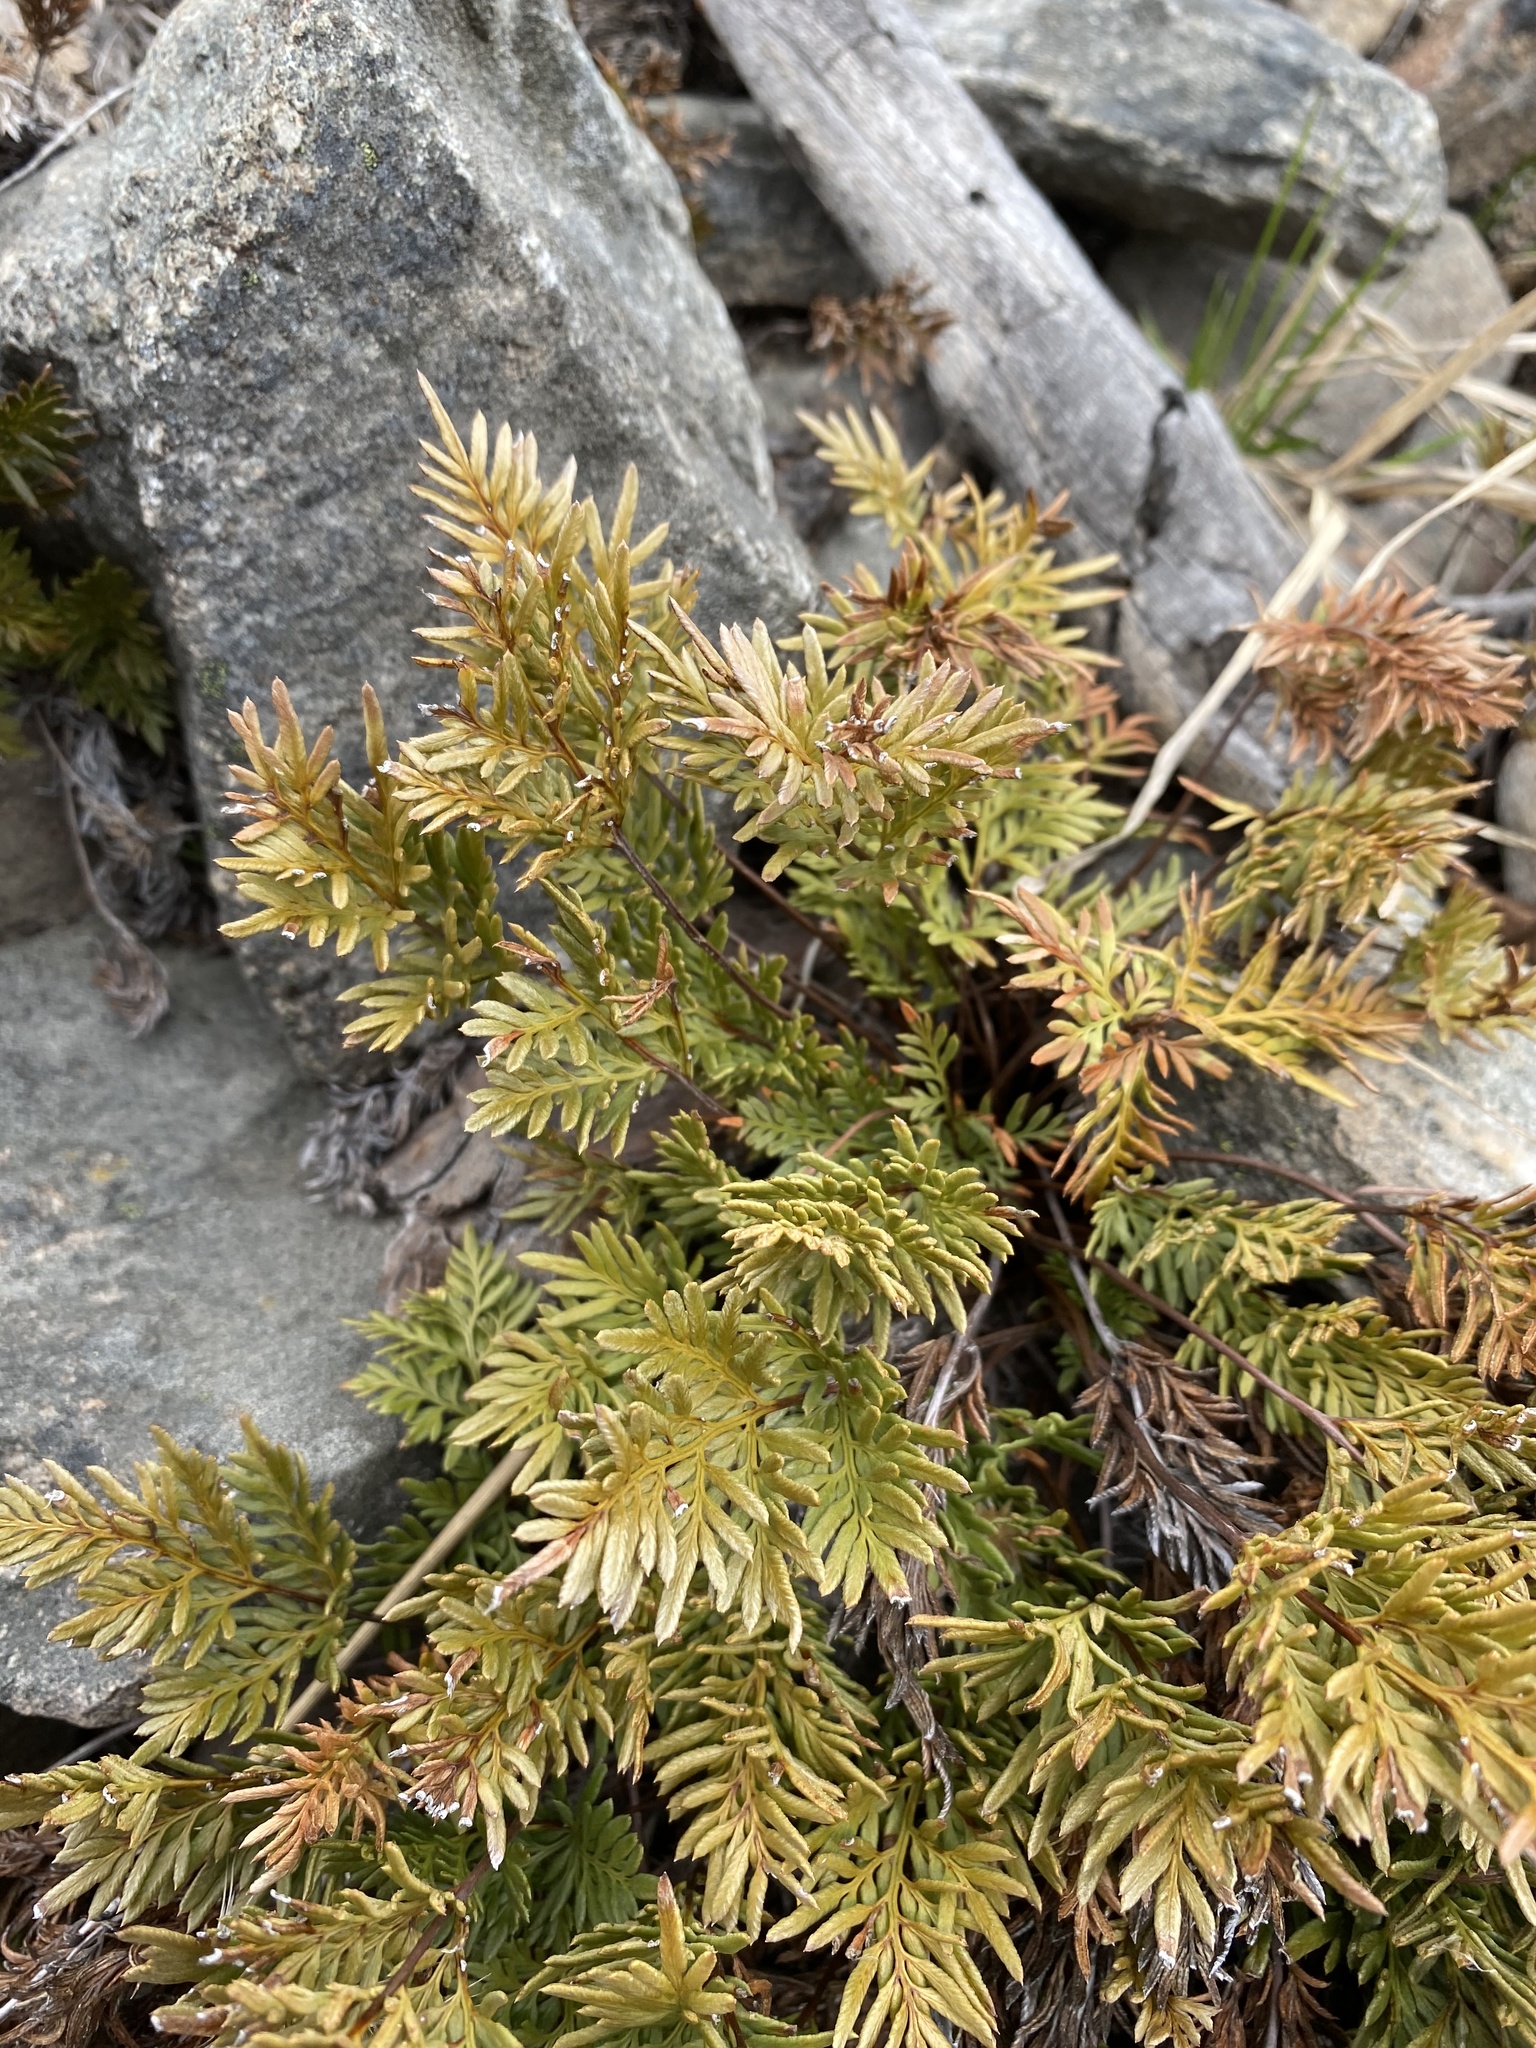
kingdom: Plantae
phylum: Tracheophyta
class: Polypodiopsida
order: Polypodiales
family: Pteridaceae
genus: Aspidotis
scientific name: Aspidotis densa
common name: Indian's dream
